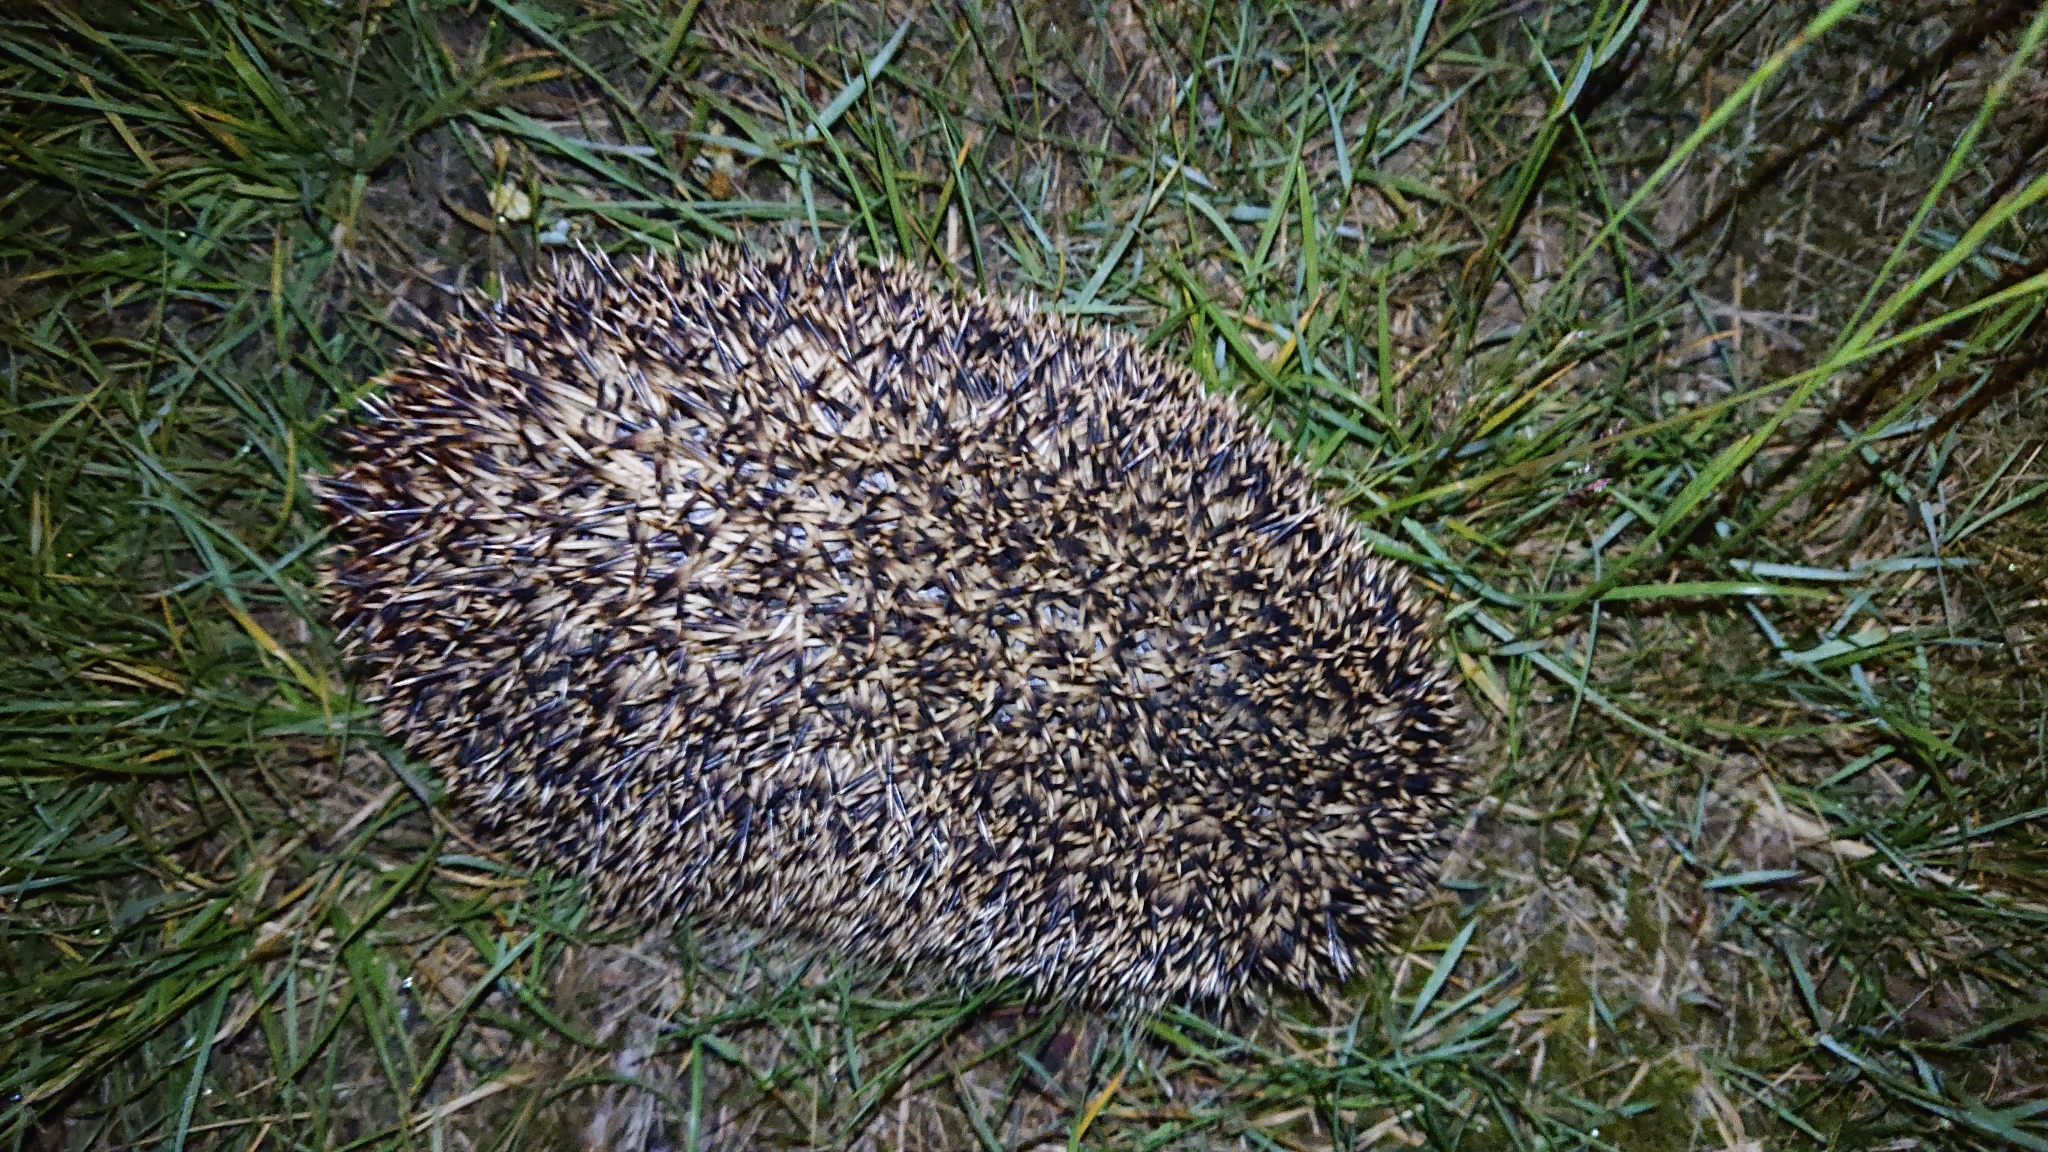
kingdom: Animalia
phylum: Chordata
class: Mammalia
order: Erinaceomorpha
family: Erinaceidae
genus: Erinaceus
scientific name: Erinaceus europaeus
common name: West european hedgehog
